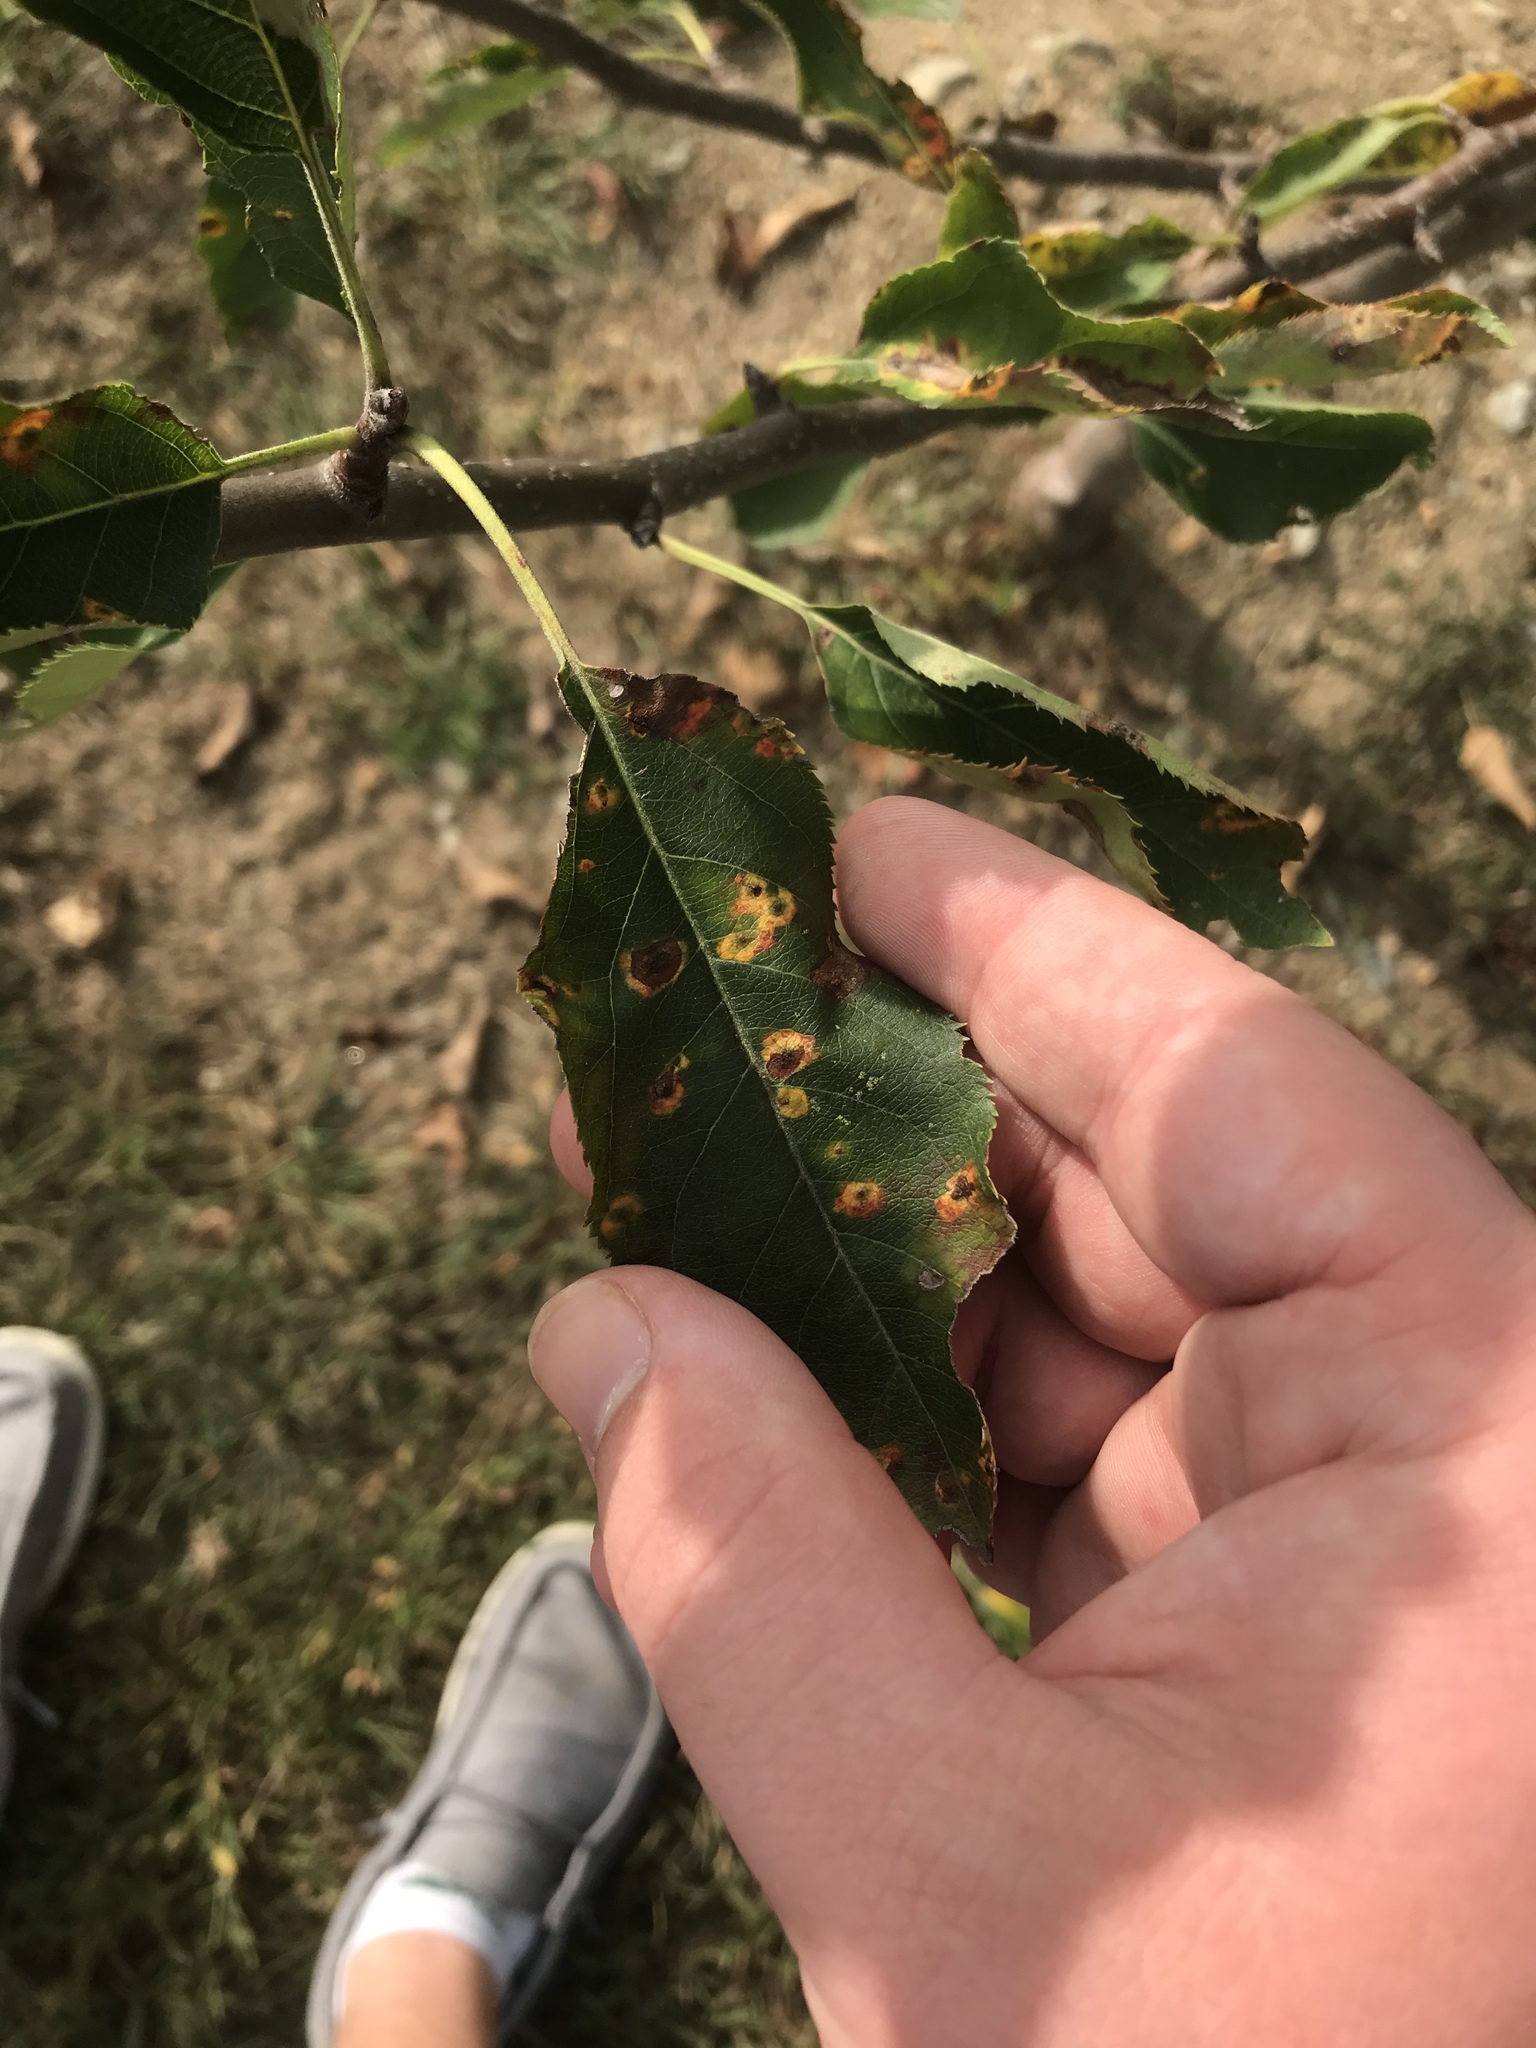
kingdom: Fungi
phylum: Basidiomycota
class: Pucciniomycetes
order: Pucciniales
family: Gymnosporangiaceae
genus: Gymnosporangium
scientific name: Gymnosporangium sabinae
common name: Pear trellis rust fungus
